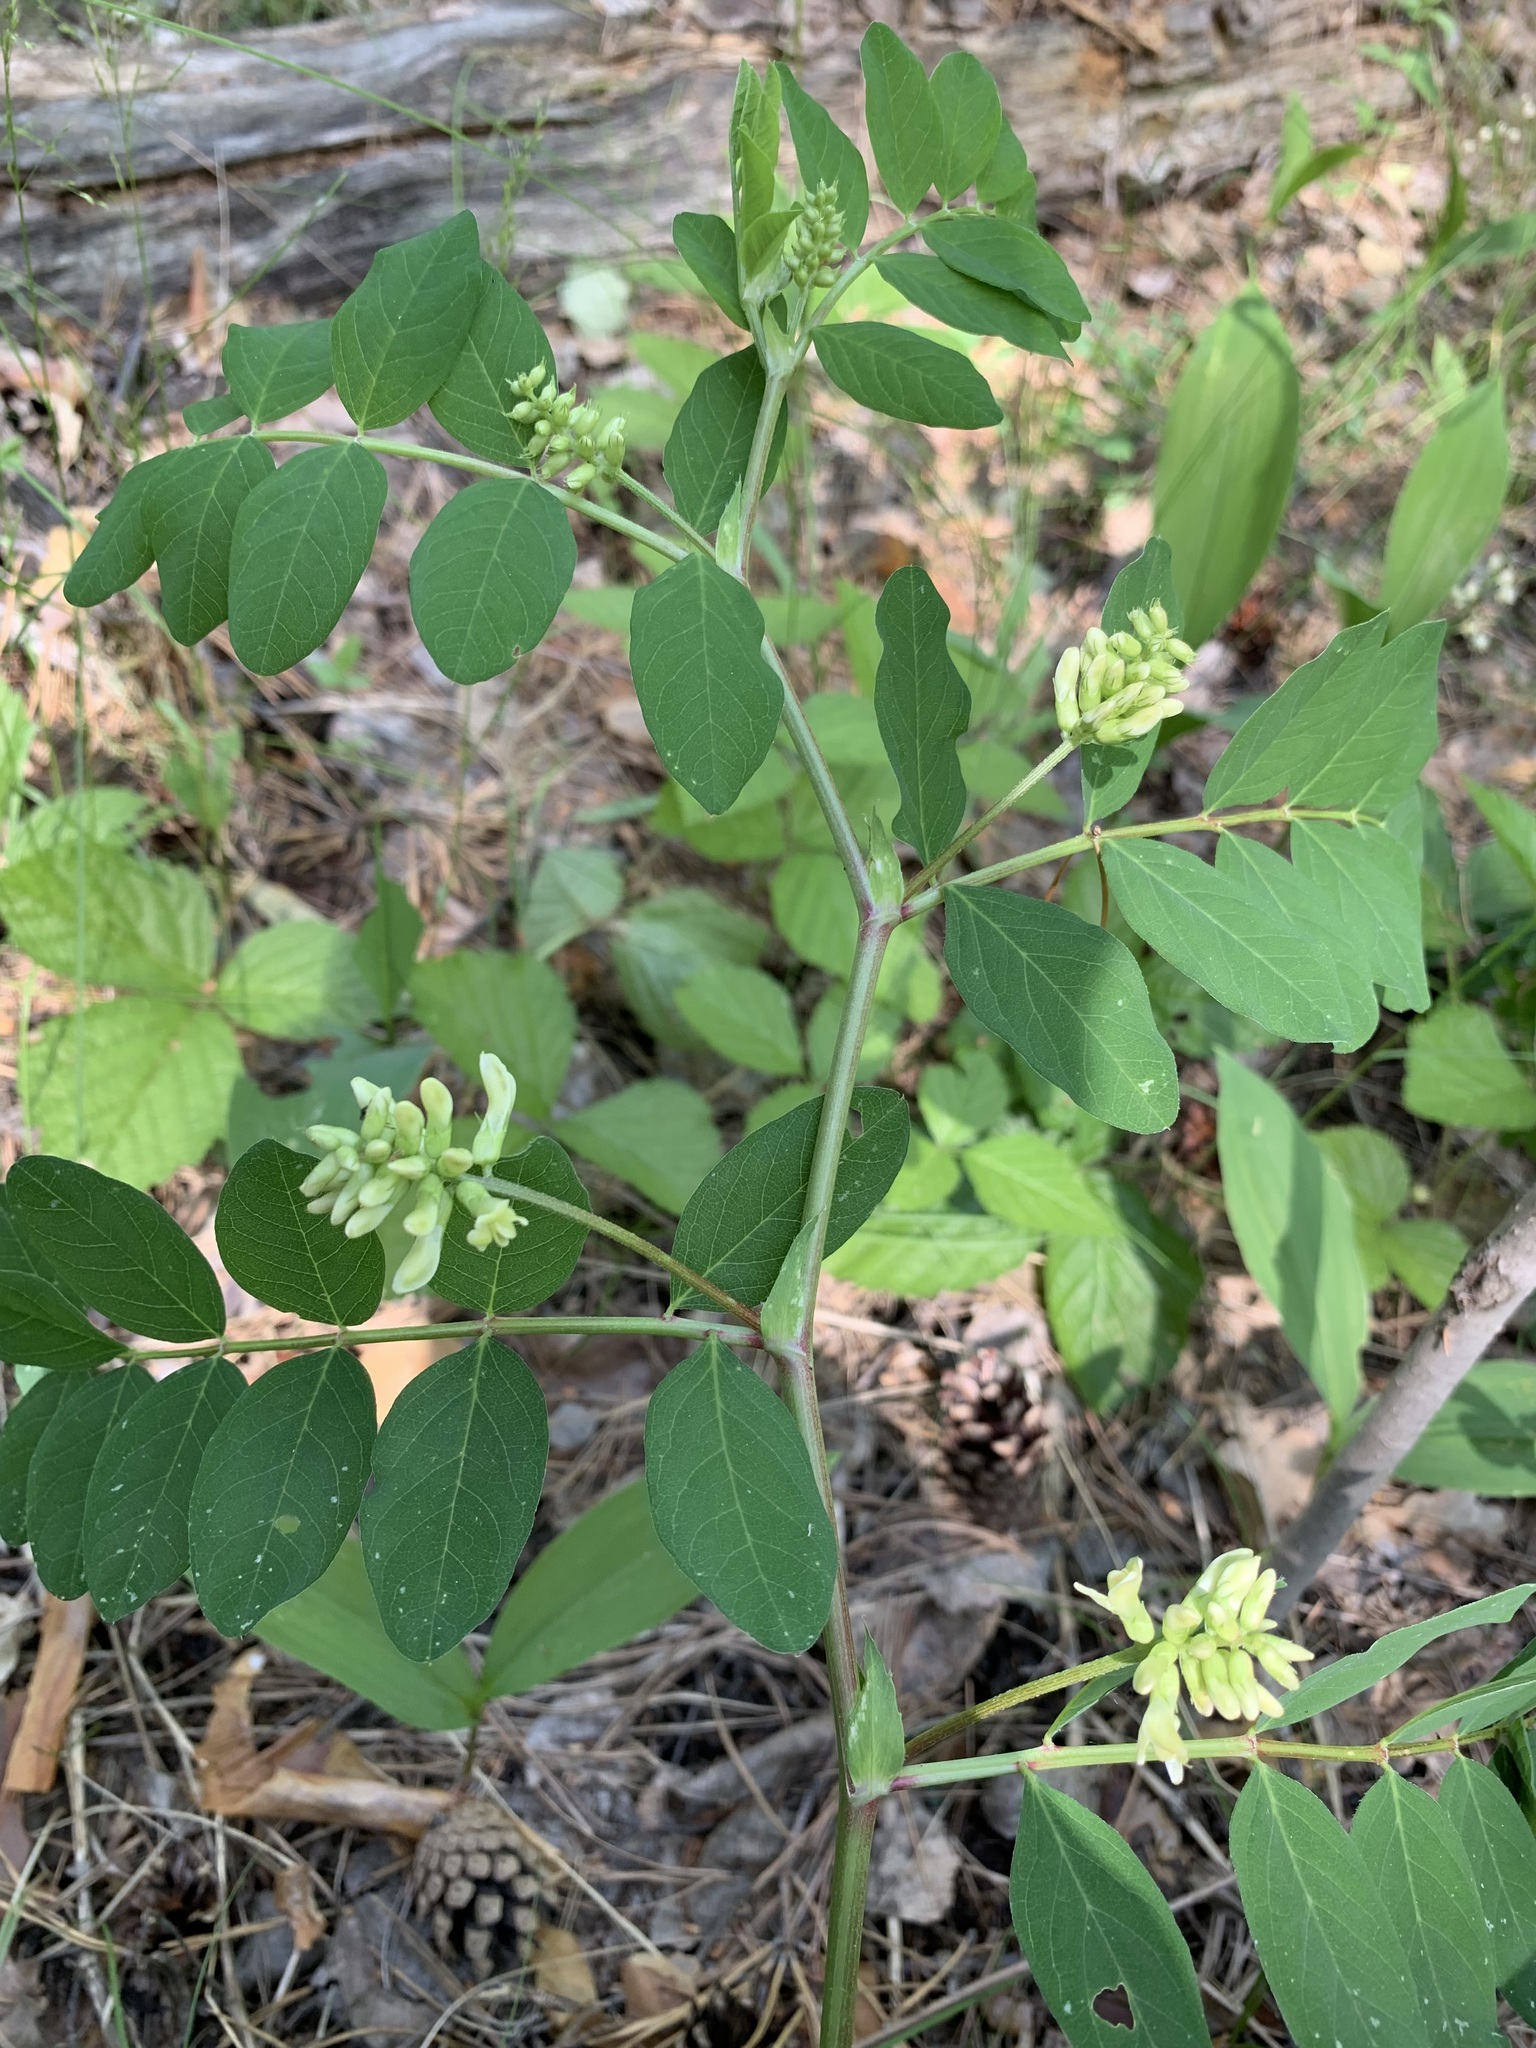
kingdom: Plantae
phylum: Tracheophyta
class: Magnoliopsida
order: Fabales
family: Fabaceae
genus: Astragalus
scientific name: Astragalus glycyphyllos
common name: Wild liquorice
